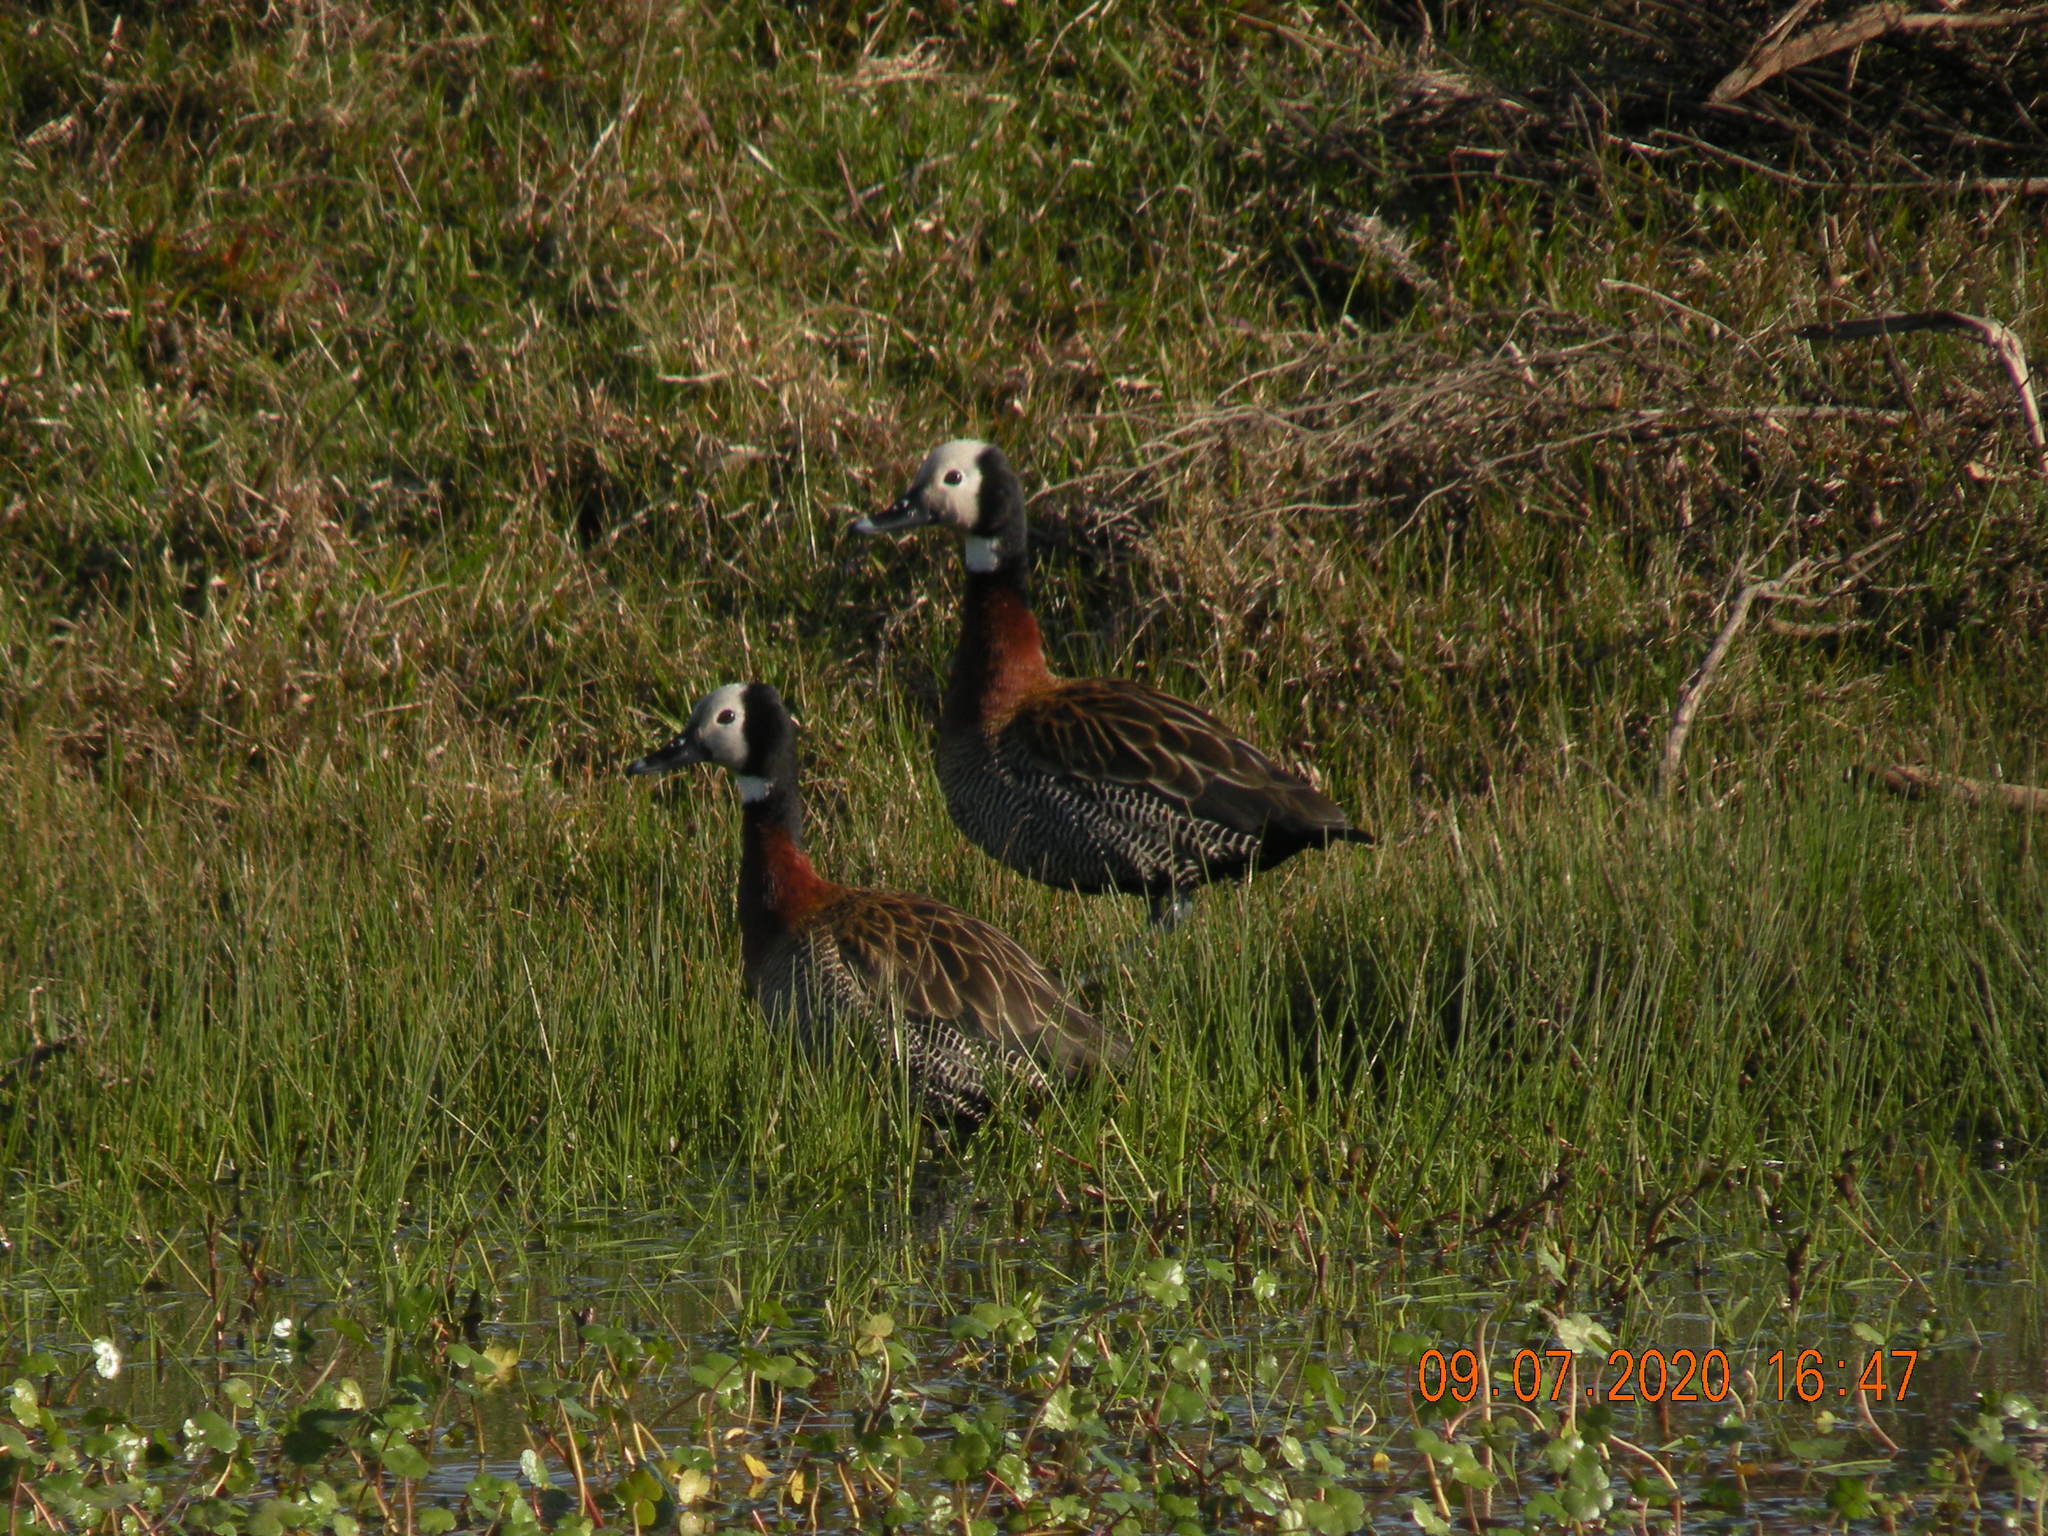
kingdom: Animalia
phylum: Chordata
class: Aves
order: Anseriformes
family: Anatidae
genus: Dendrocygna
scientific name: Dendrocygna viduata
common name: White-faced whistling duck
